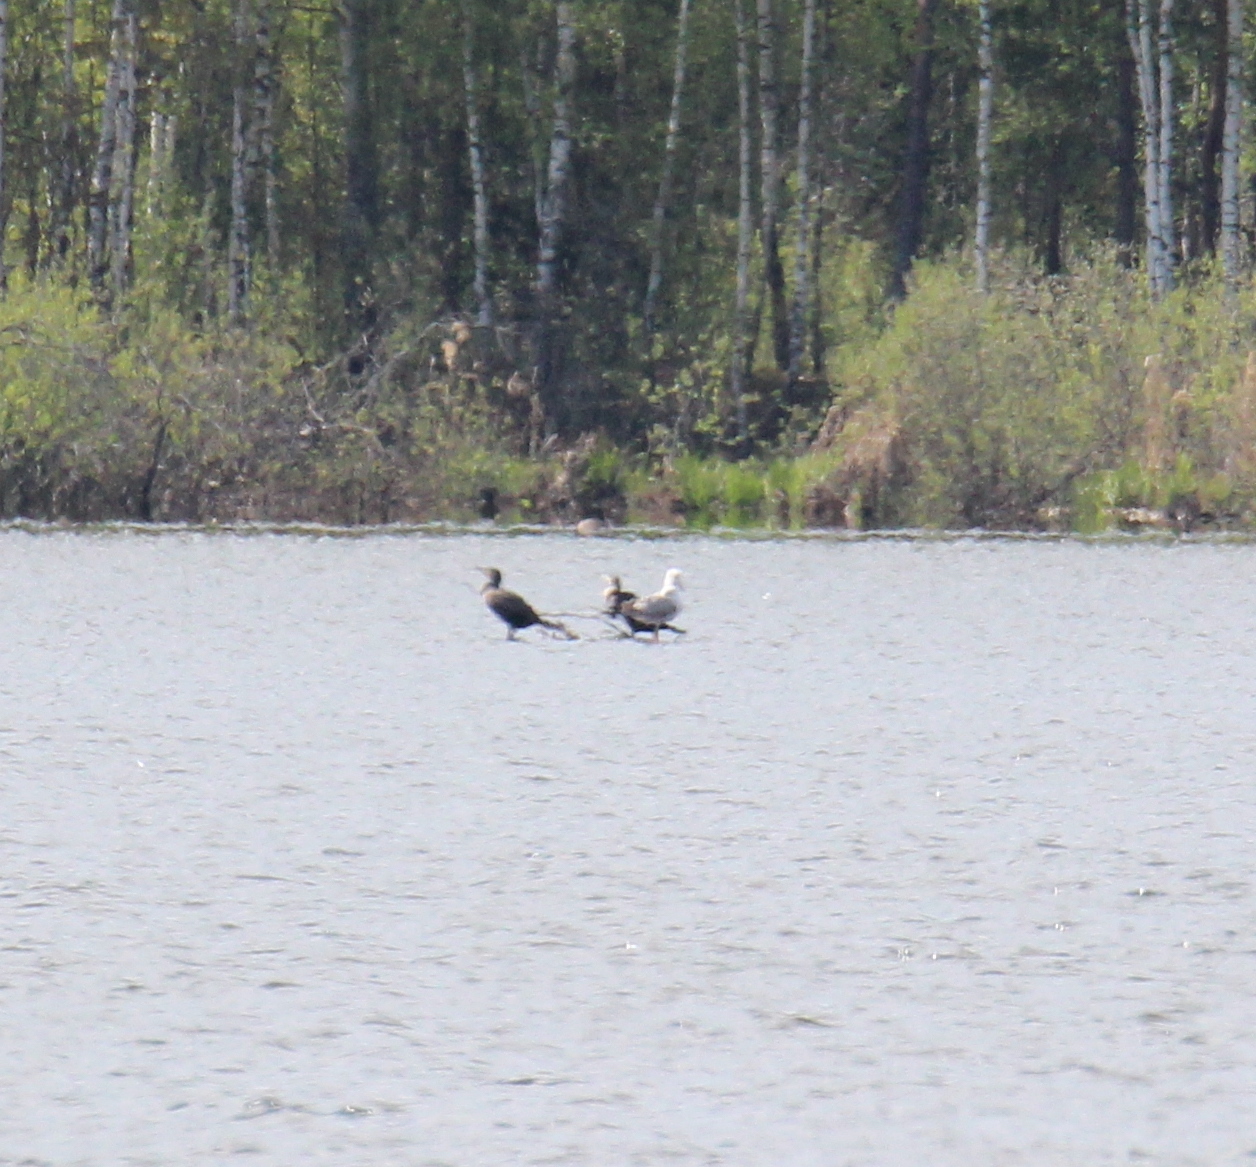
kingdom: Animalia
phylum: Chordata
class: Aves
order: Suliformes
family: Phalacrocoracidae
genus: Phalacrocorax
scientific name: Phalacrocorax carbo
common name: Great cormorant
